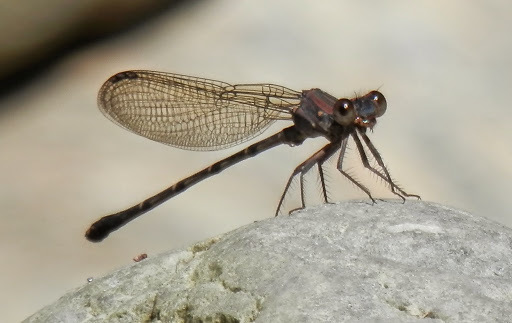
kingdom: Animalia
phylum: Arthropoda
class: Insecta
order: Odonata
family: Coenagrionidae
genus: Argia
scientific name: Argia lugens
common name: Sooty dancer
